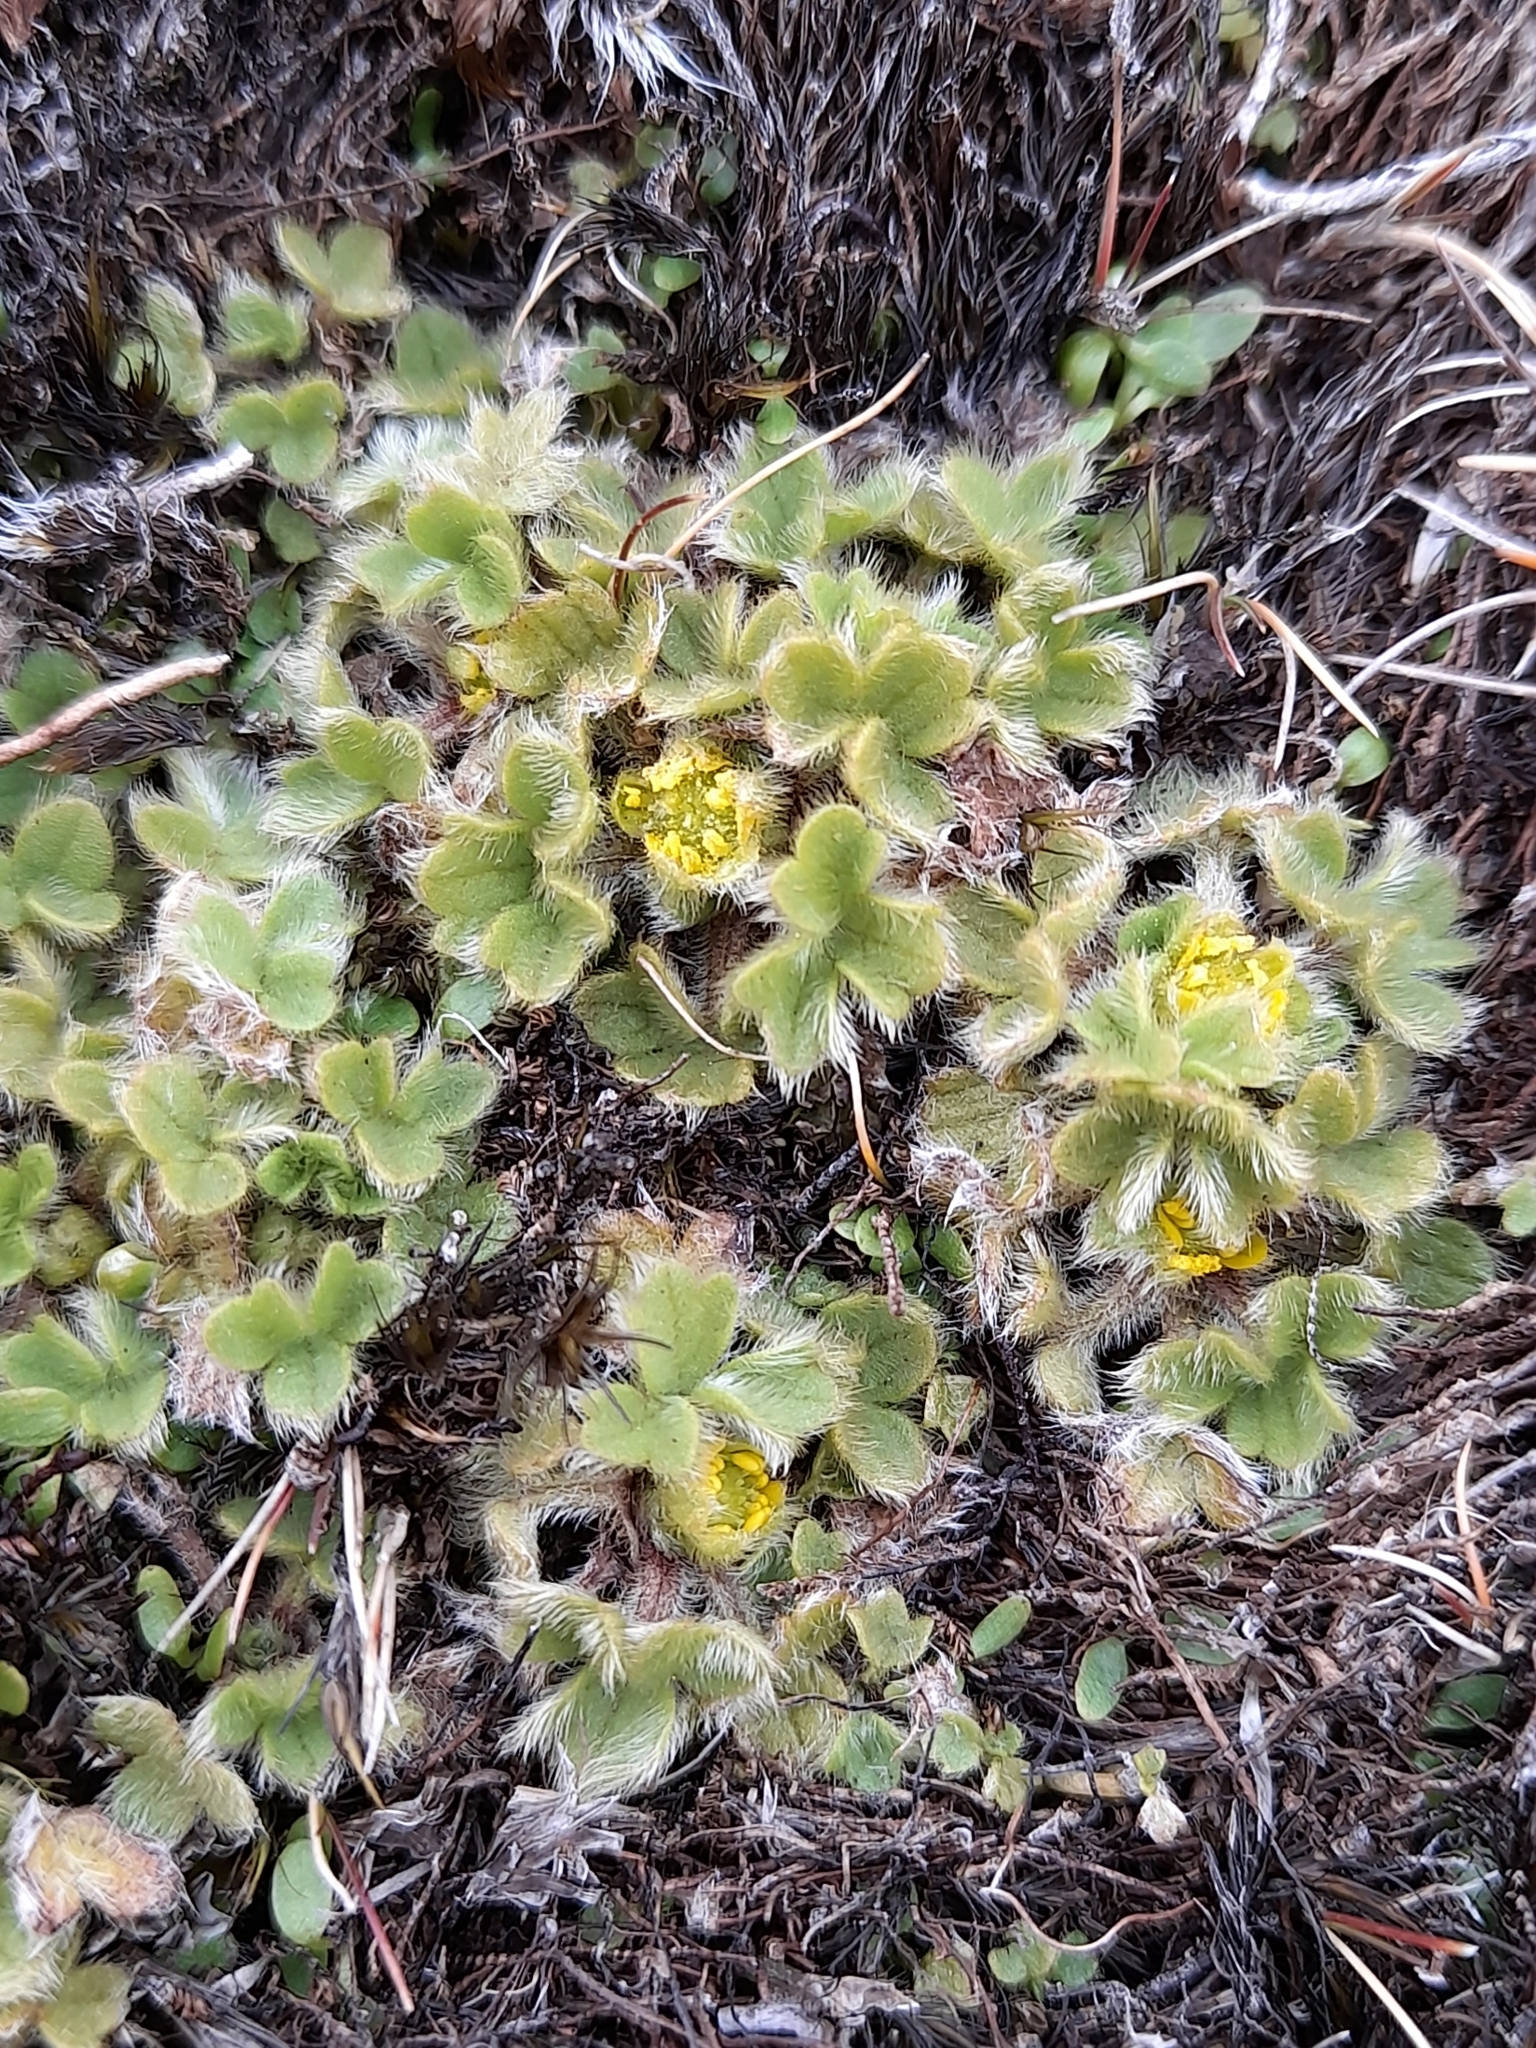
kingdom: Plantae
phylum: Tracheophyta
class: Magnoliopsida
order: Ranunculales
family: Ranunculaceae
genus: Ranunculus
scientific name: Ranunculus sericocephalus
